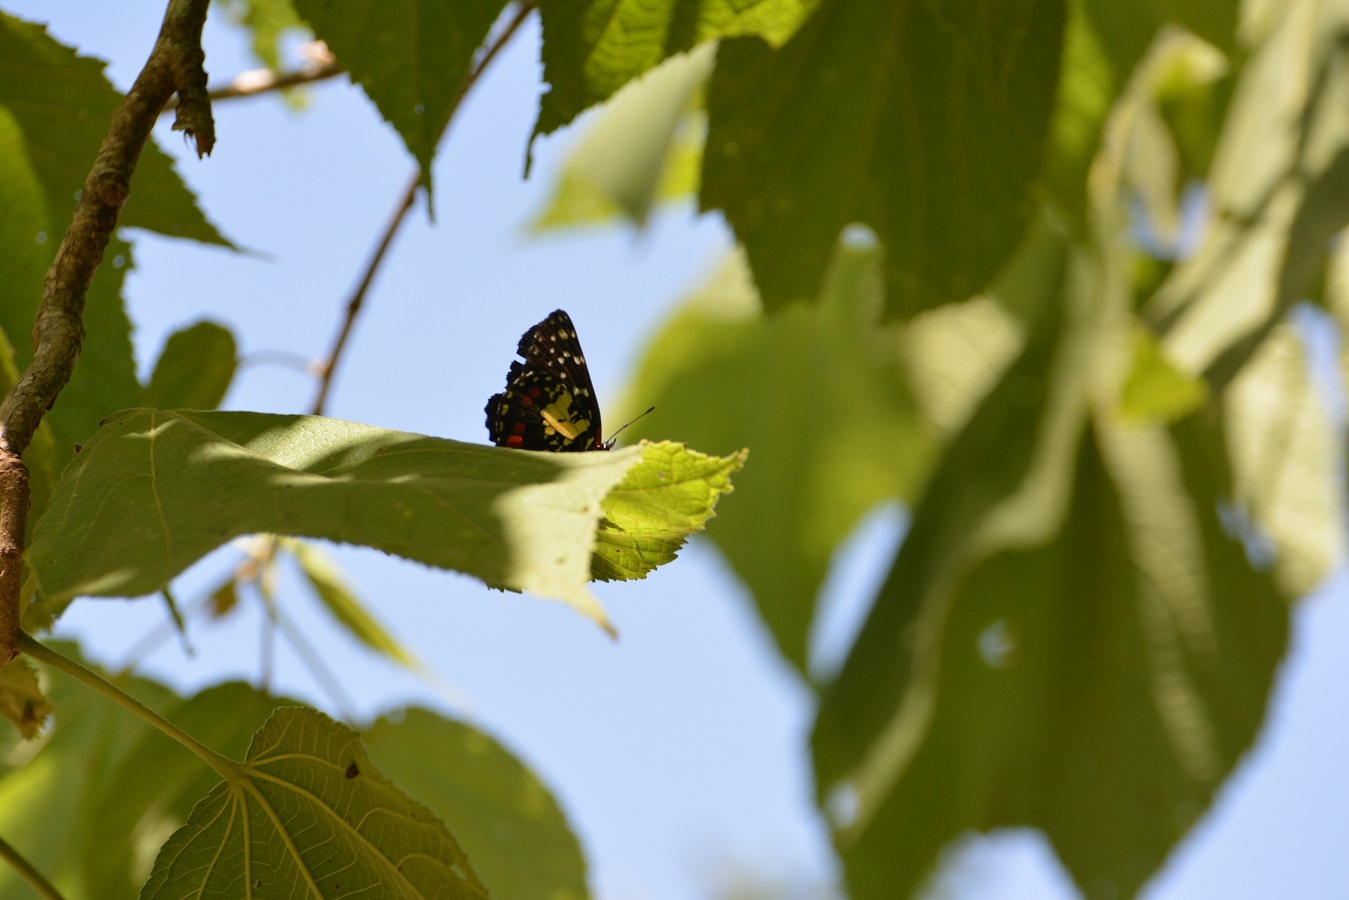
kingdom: Animalia
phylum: Arthropoda
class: Insecta
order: Lepidoptera
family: Nymphalidae
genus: Chlosyne
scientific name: Chlosyne erodyle
